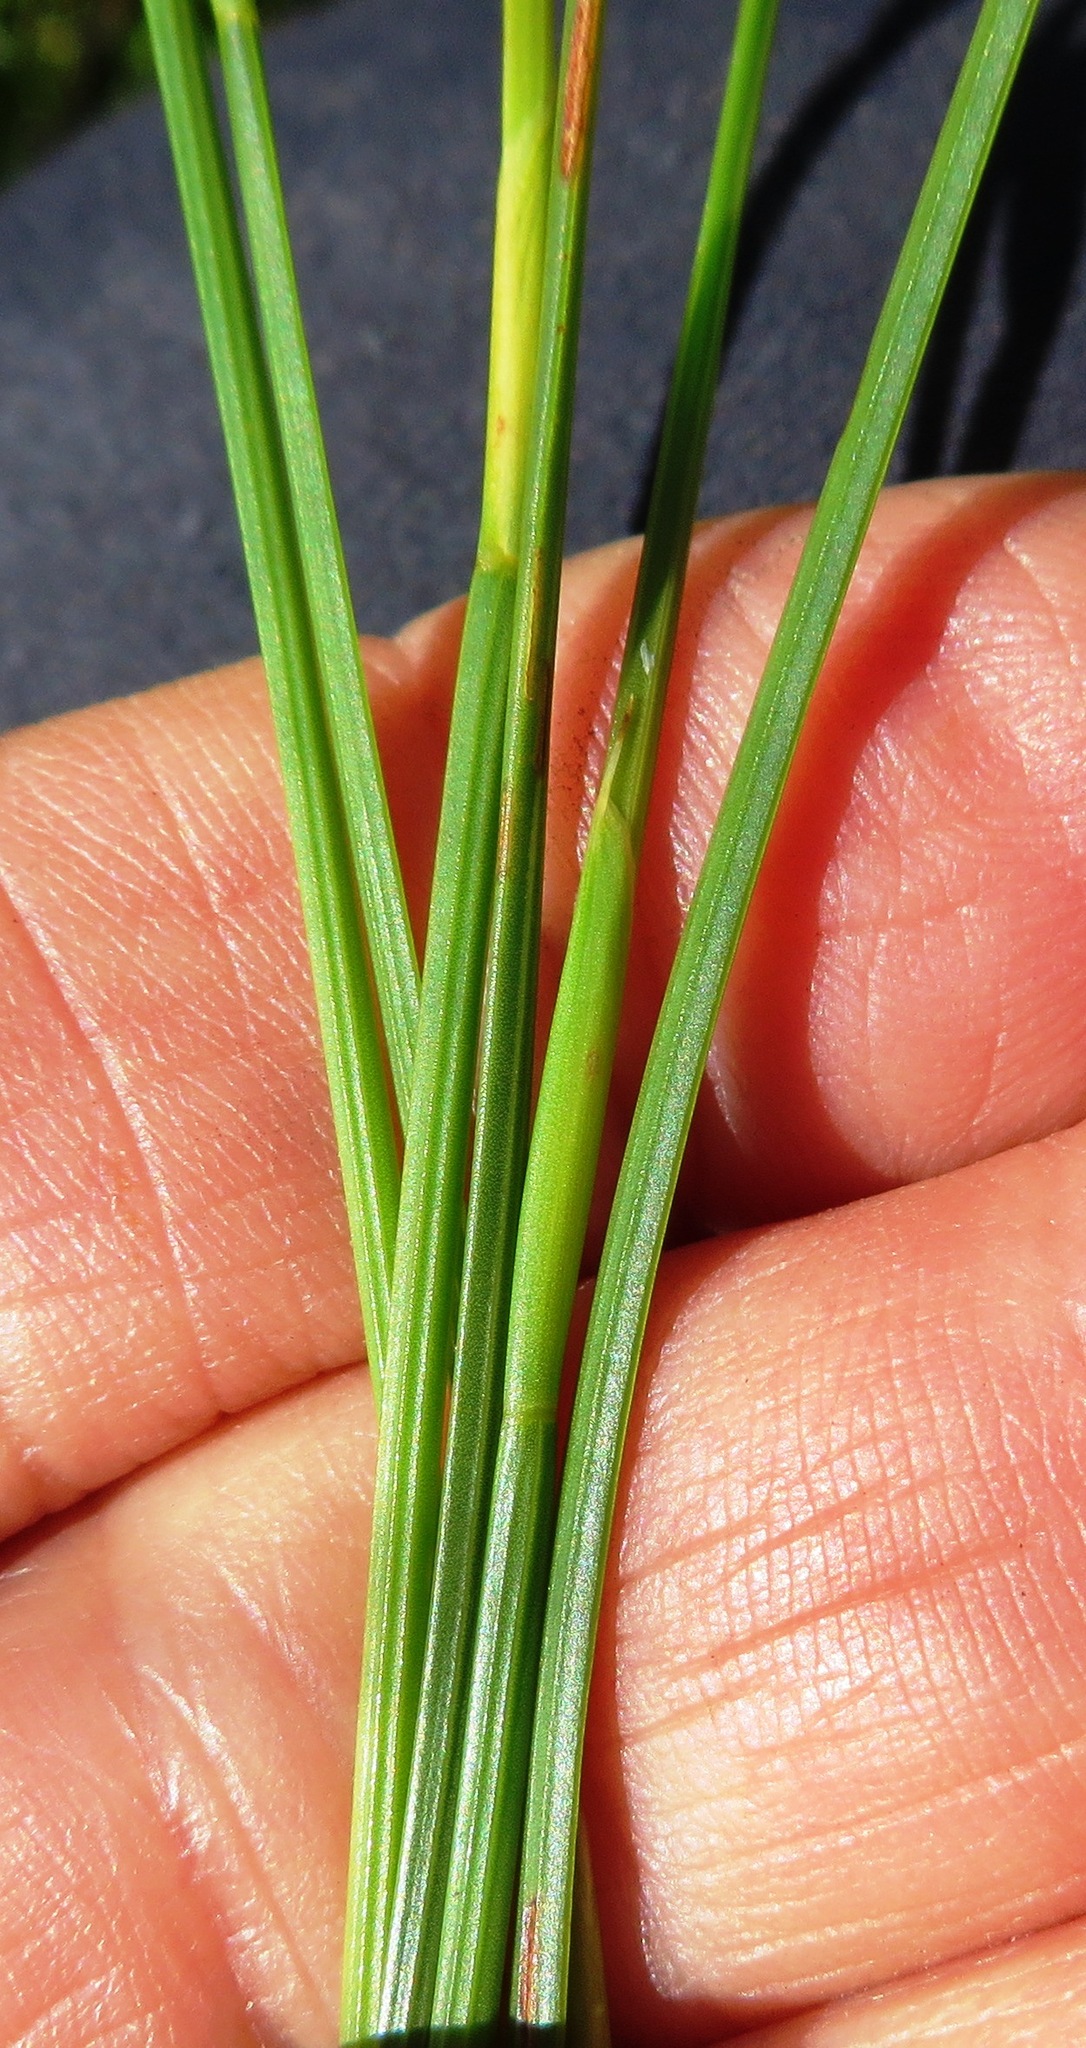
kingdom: Plantae
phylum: Tracheophyta
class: Liliopsida
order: Poales
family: Restionaceae
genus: Hypodiscus
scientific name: Hypodiscus willdenowia
